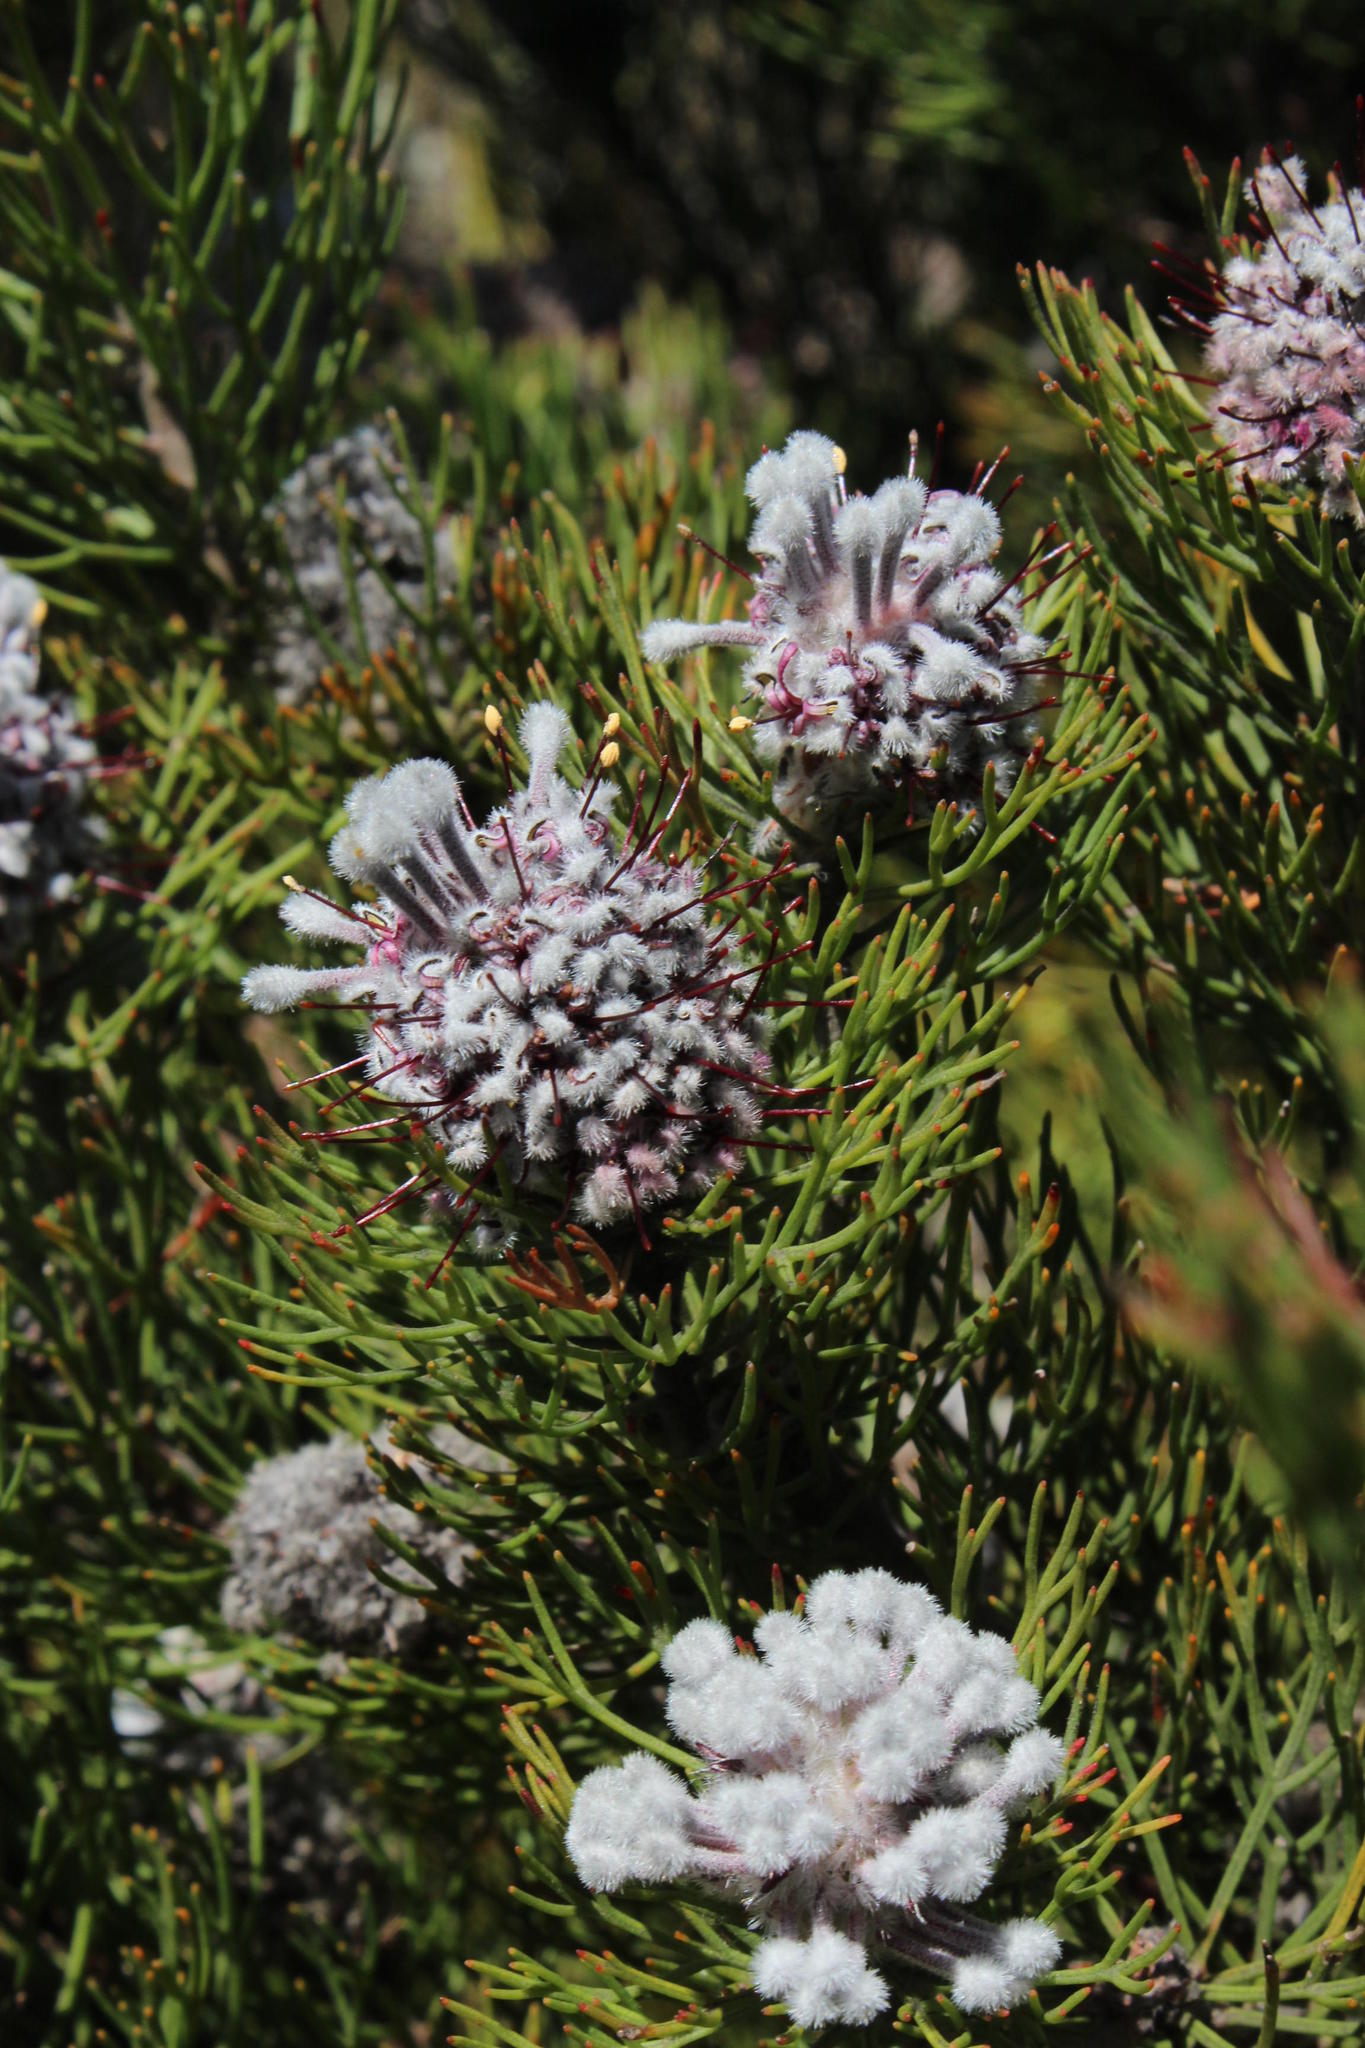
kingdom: Plantae
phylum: Tracheophyta
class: Magnoliopsida
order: Proteales
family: Proteaceae
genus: Paranomus
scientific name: Paranomus
